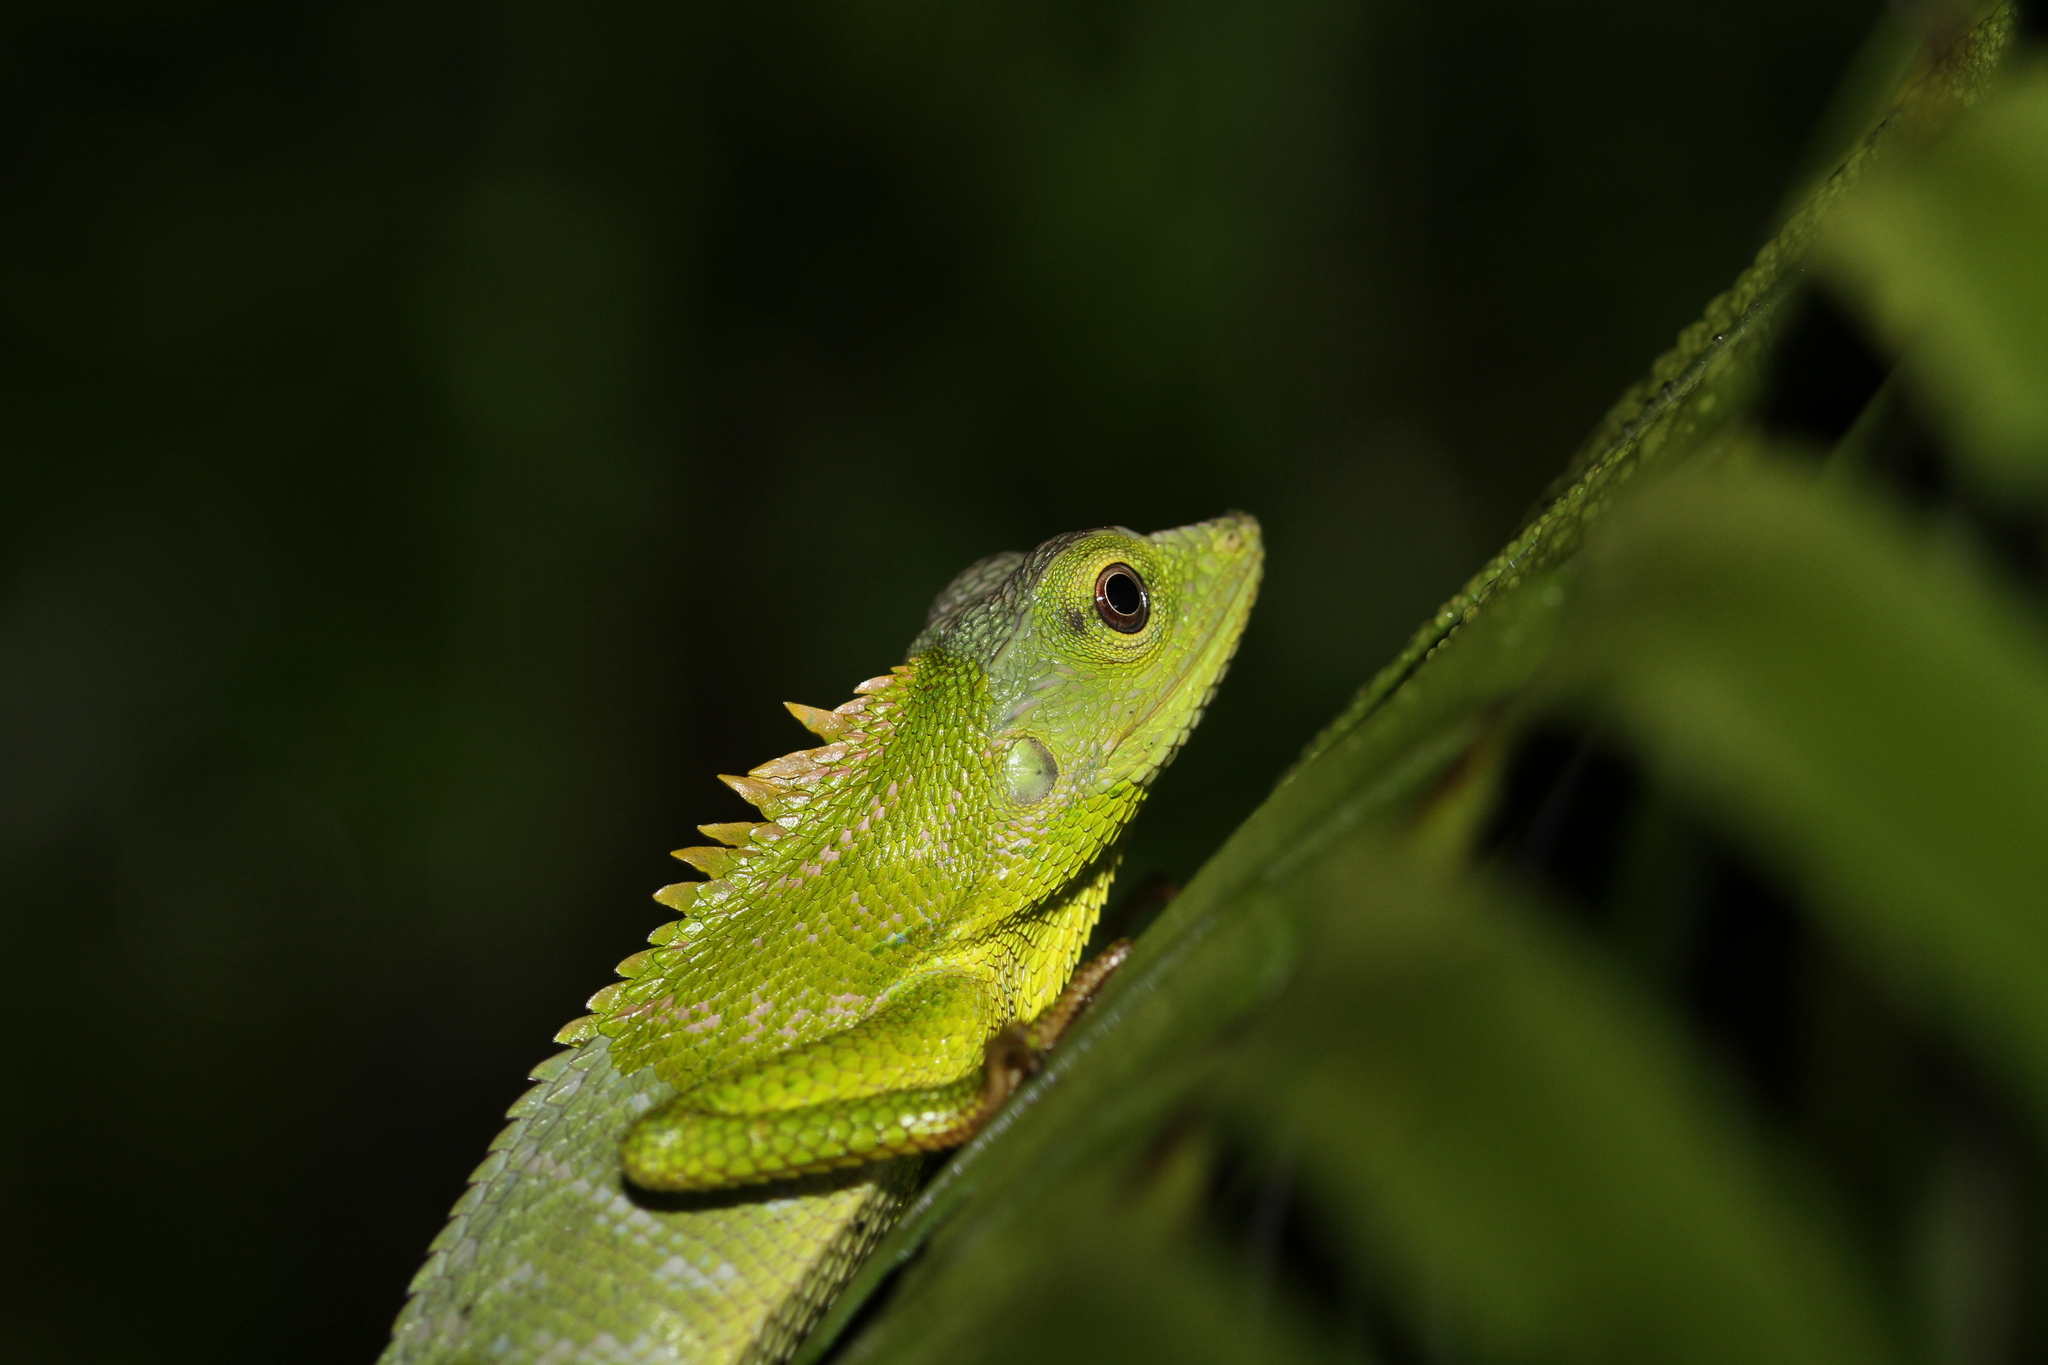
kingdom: Animalia
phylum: Chordata
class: Squamata
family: Agamidae
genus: Bronchocela
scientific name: Bronchocela jubata
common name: Maned forest lizard
